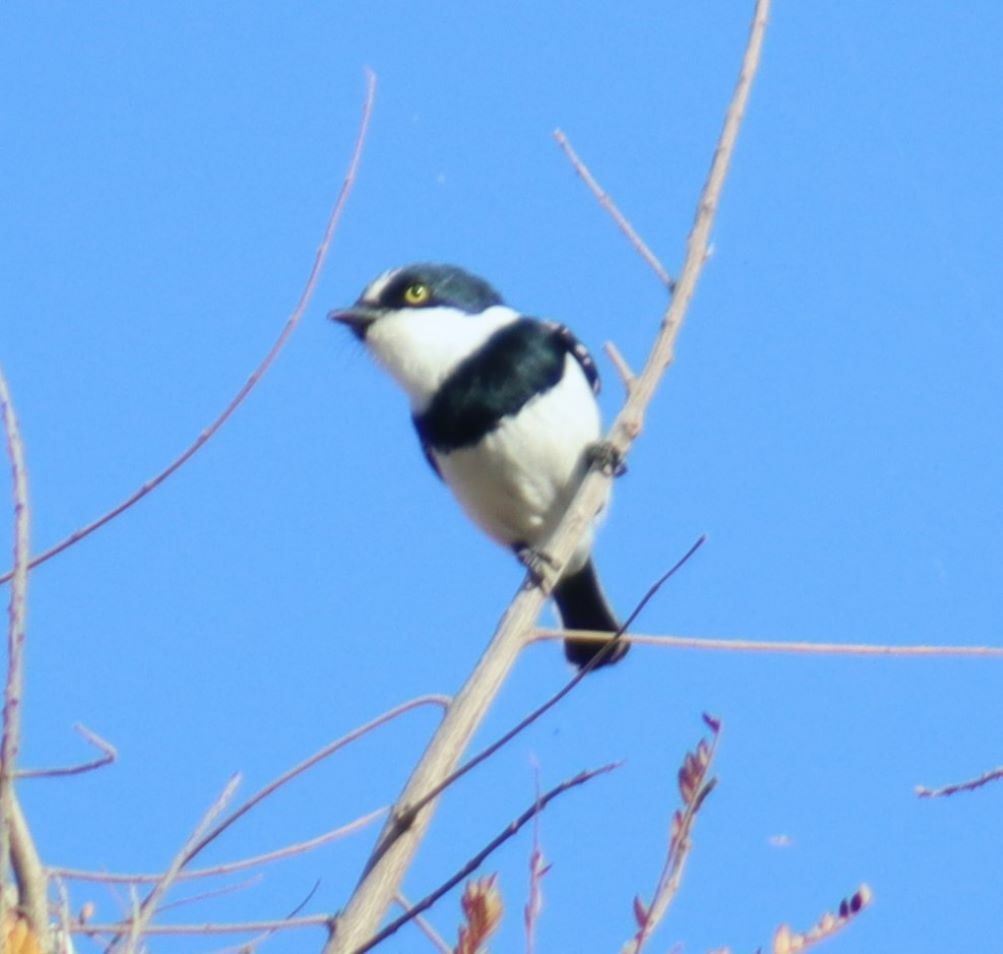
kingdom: Animalia
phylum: Chordata
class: Aves
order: Passeriformes
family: Platysteiridae
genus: Batis
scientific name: Batis molitor
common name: Chinspot batis
